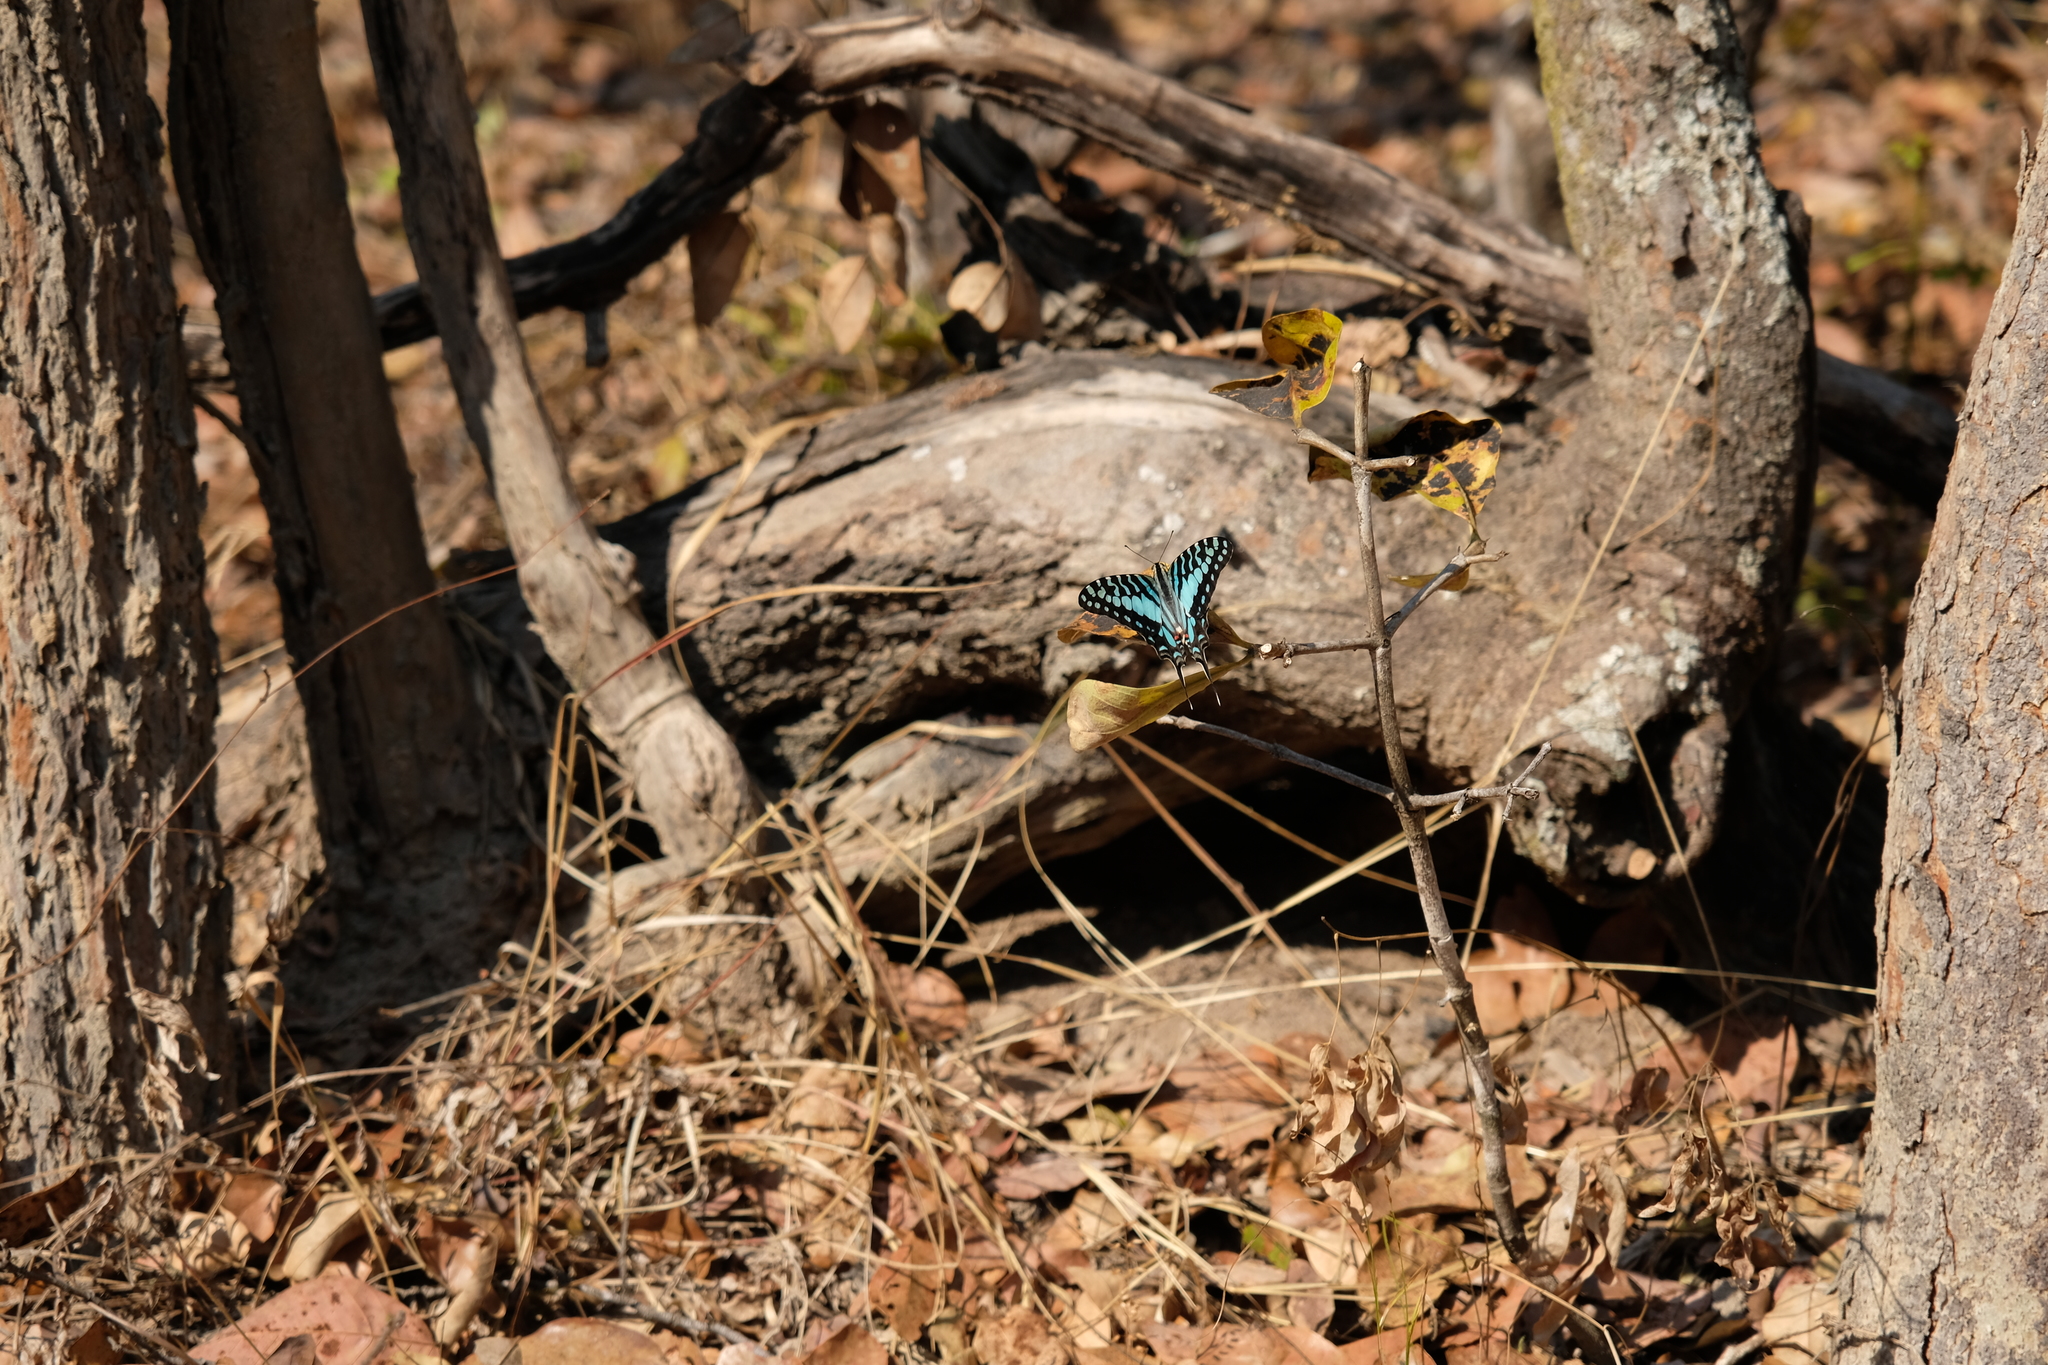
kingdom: Animalia
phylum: Arthropoda
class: Insecta
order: Lepidoptera
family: Papilionidae
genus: Graphium
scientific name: Graphium antheus
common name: Large striped swordtail
